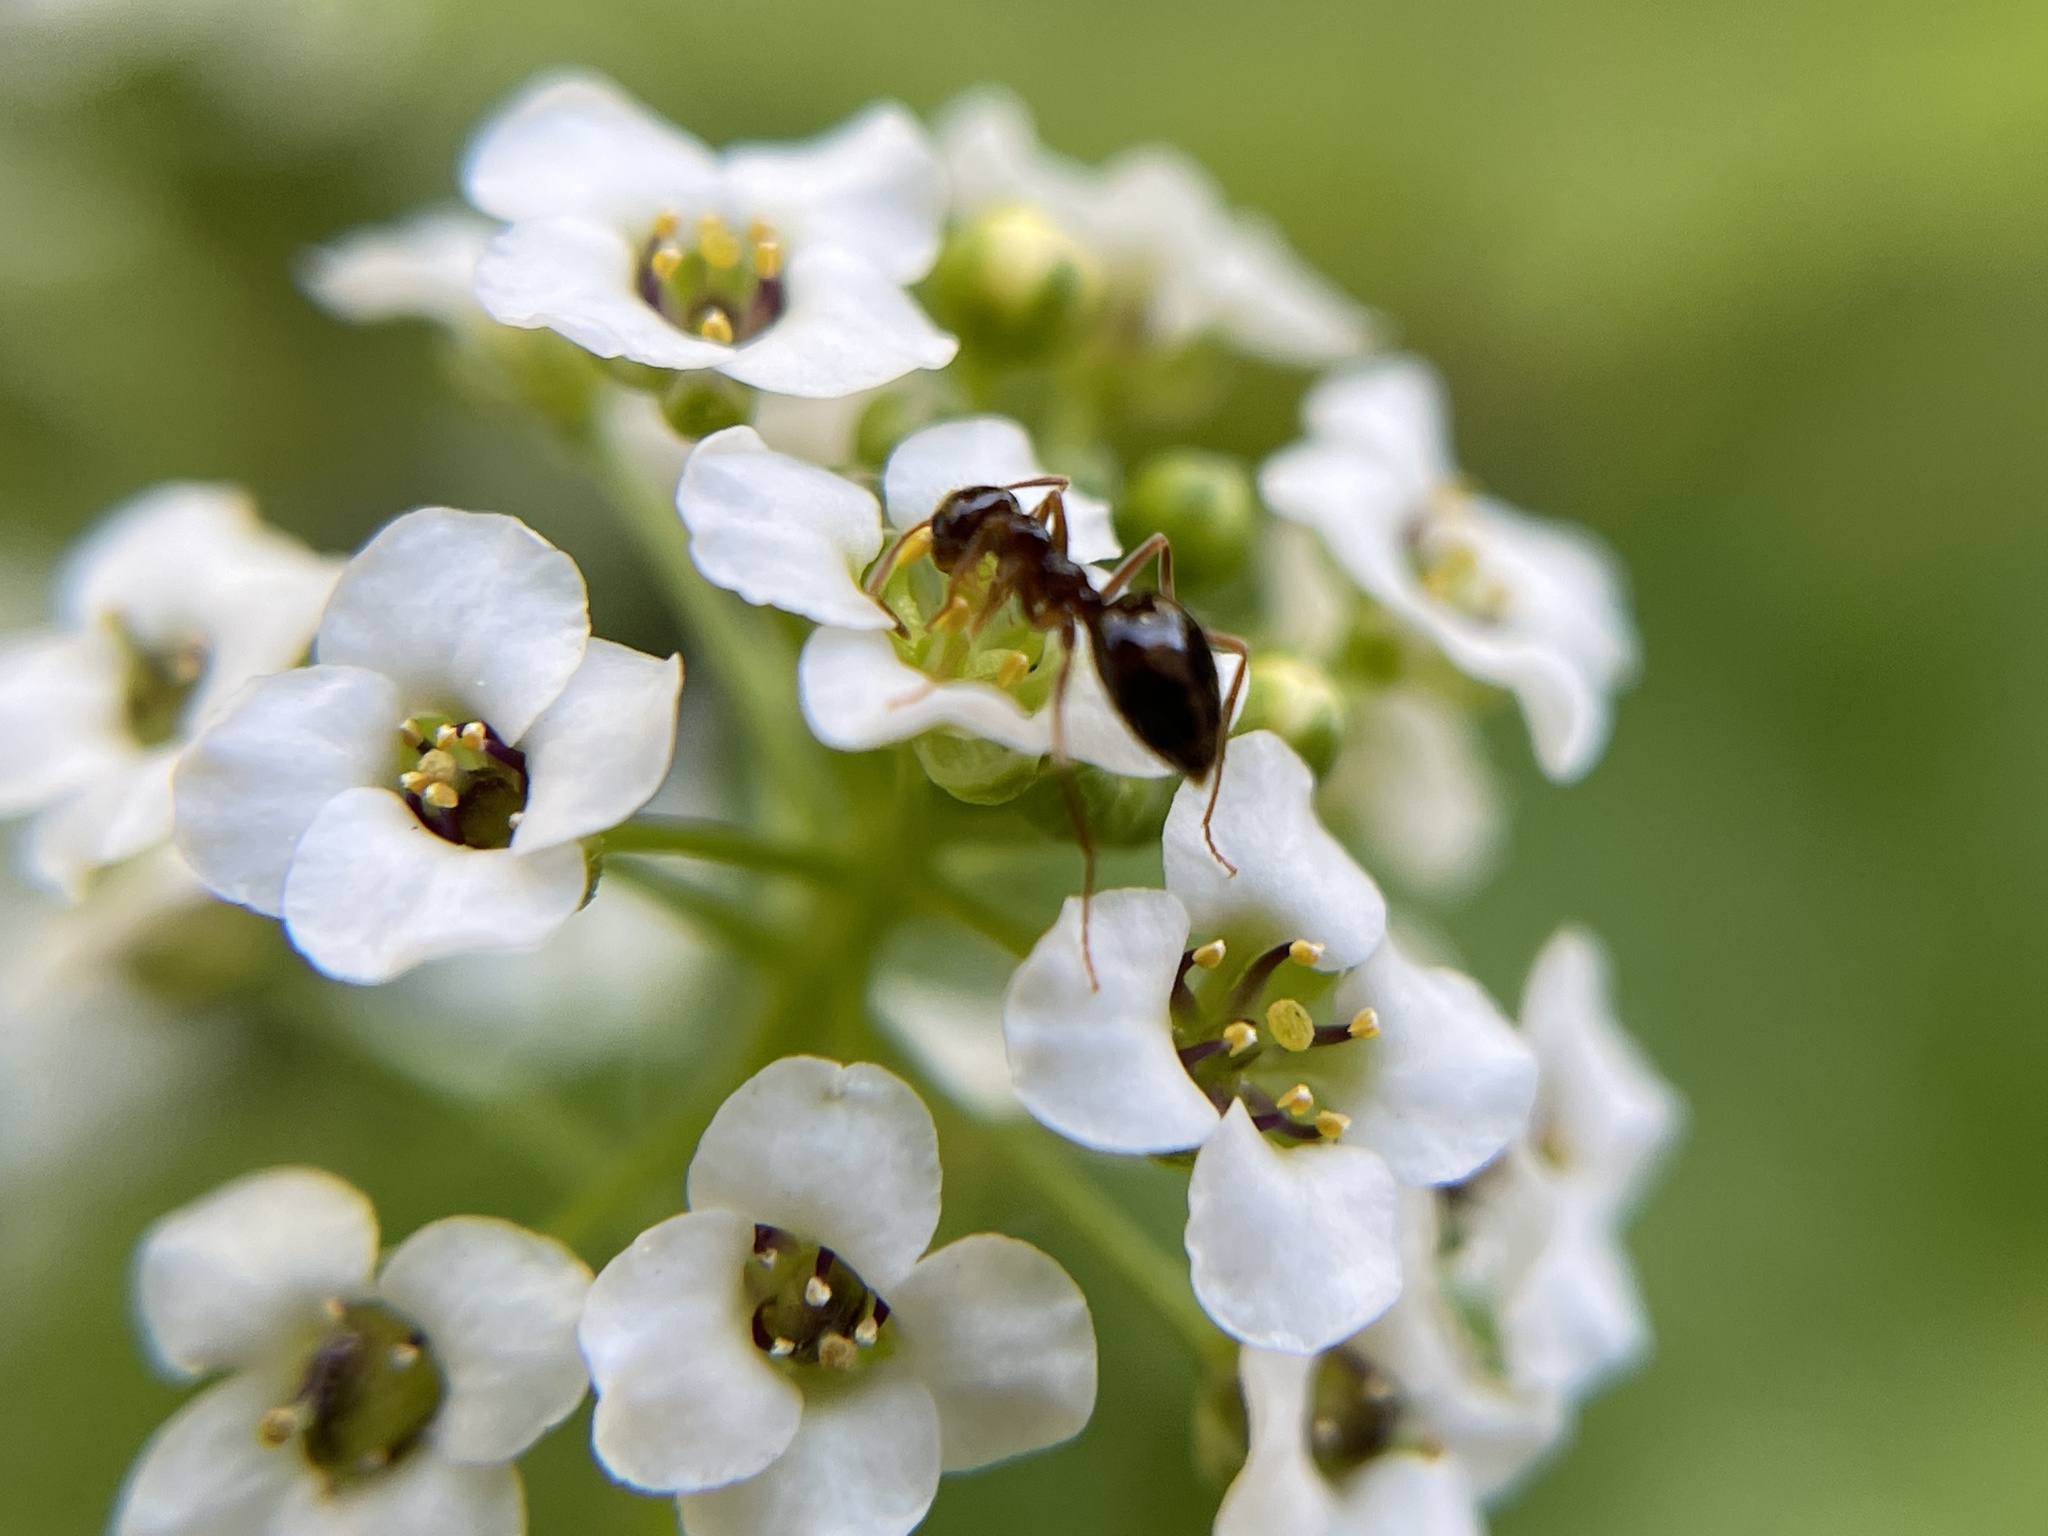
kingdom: Animalia
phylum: Arthropoda
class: Insecta
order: Hymenoptera
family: Formicidae
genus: Prenolepis
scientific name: Prenolepis imparis
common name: Small honey ant
